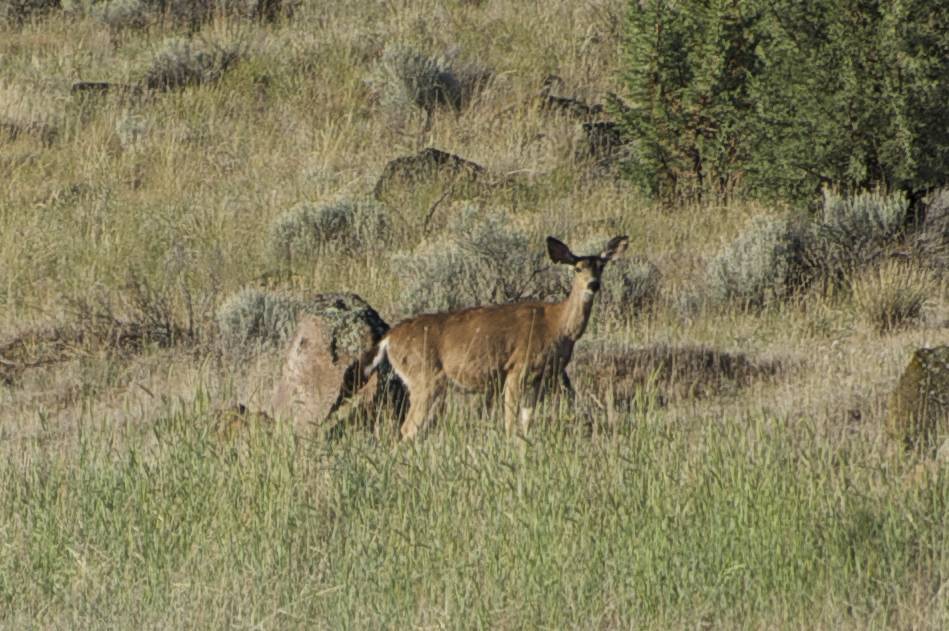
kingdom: Animalia
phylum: Chordata
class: Mammalia
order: Artiodactyla
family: Cervidae
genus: Odocoileus
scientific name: Odocoileus hemionus
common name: Mule deer
